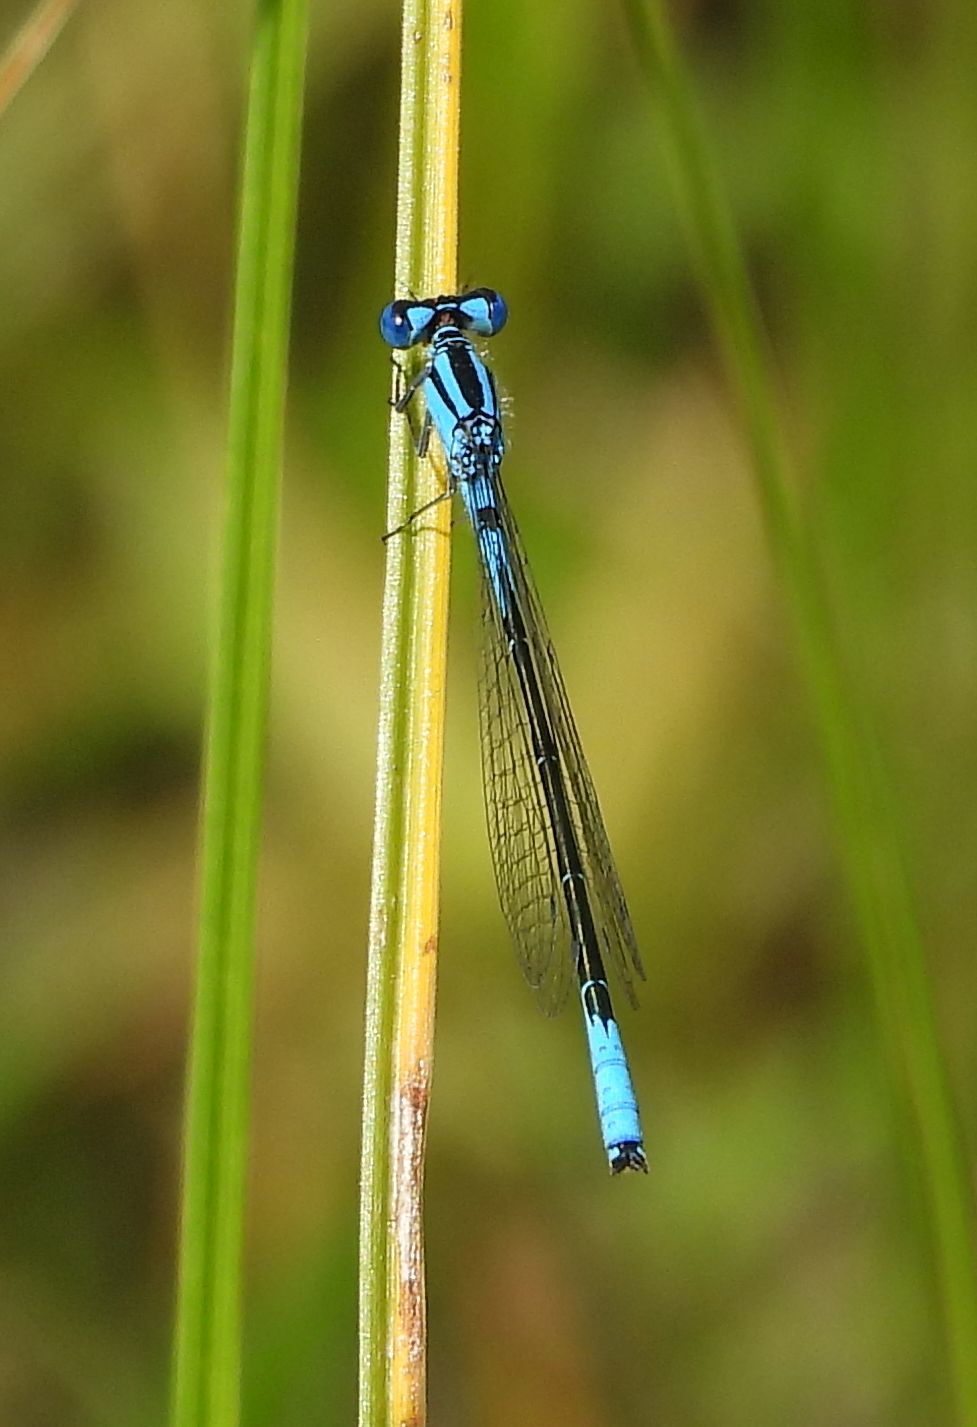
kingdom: Animalia
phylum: Arthropoda
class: Insecta
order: Odonata
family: Coenagrionidae
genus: Enallagma
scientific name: Enallagma aspersum
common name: Azure bluet
